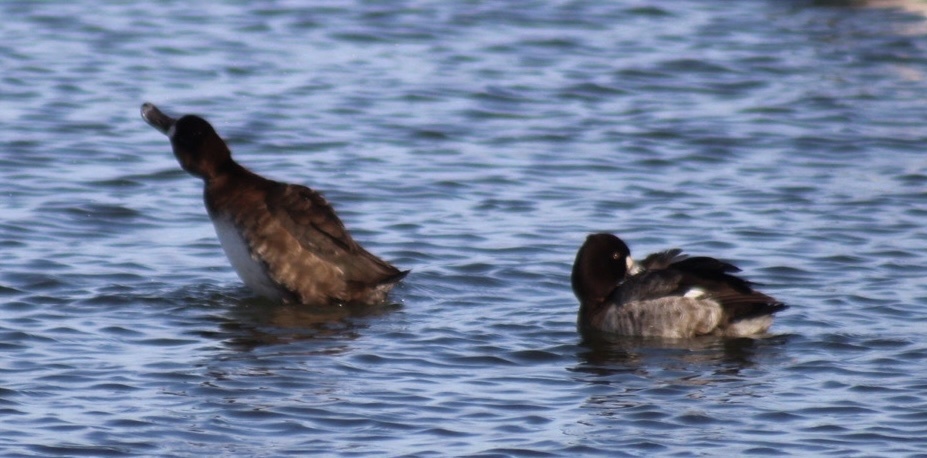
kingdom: Animalia
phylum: Chordata
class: Aves
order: Anseriformes
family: Anatidae
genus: Aythya
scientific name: Aythya affinis
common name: Lesser scaup
